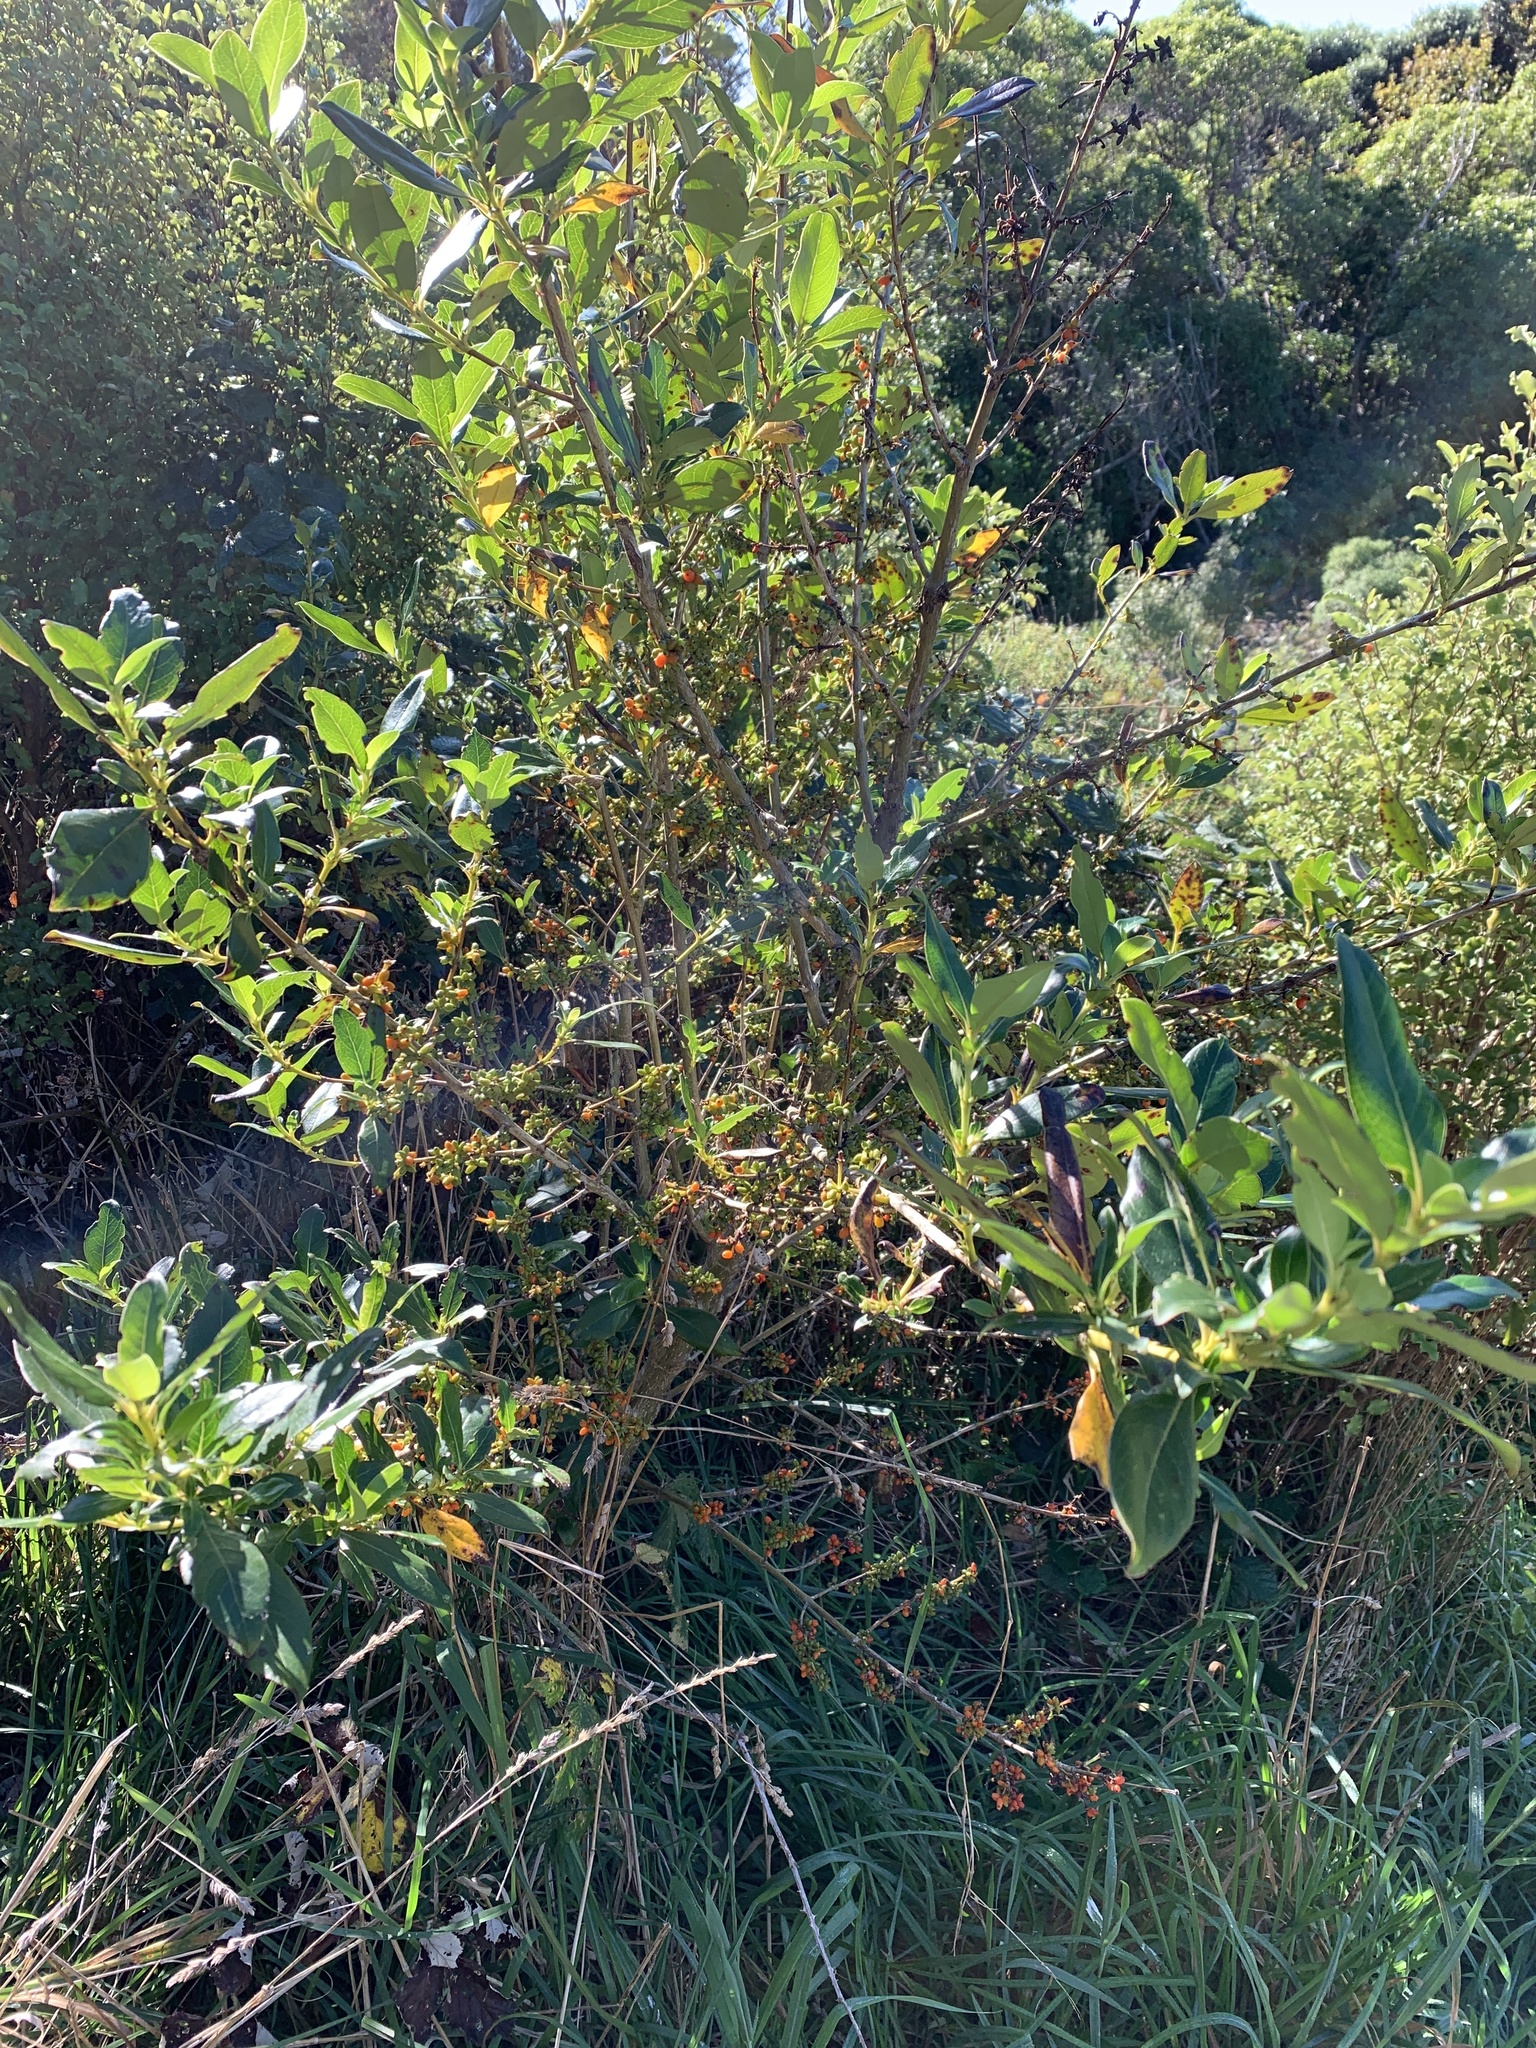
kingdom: Plantae
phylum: Tracheophyta
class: Magnoliopsida
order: Gentianales
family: Rubiaceae
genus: Coprosma
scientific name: Coprosma robusta
